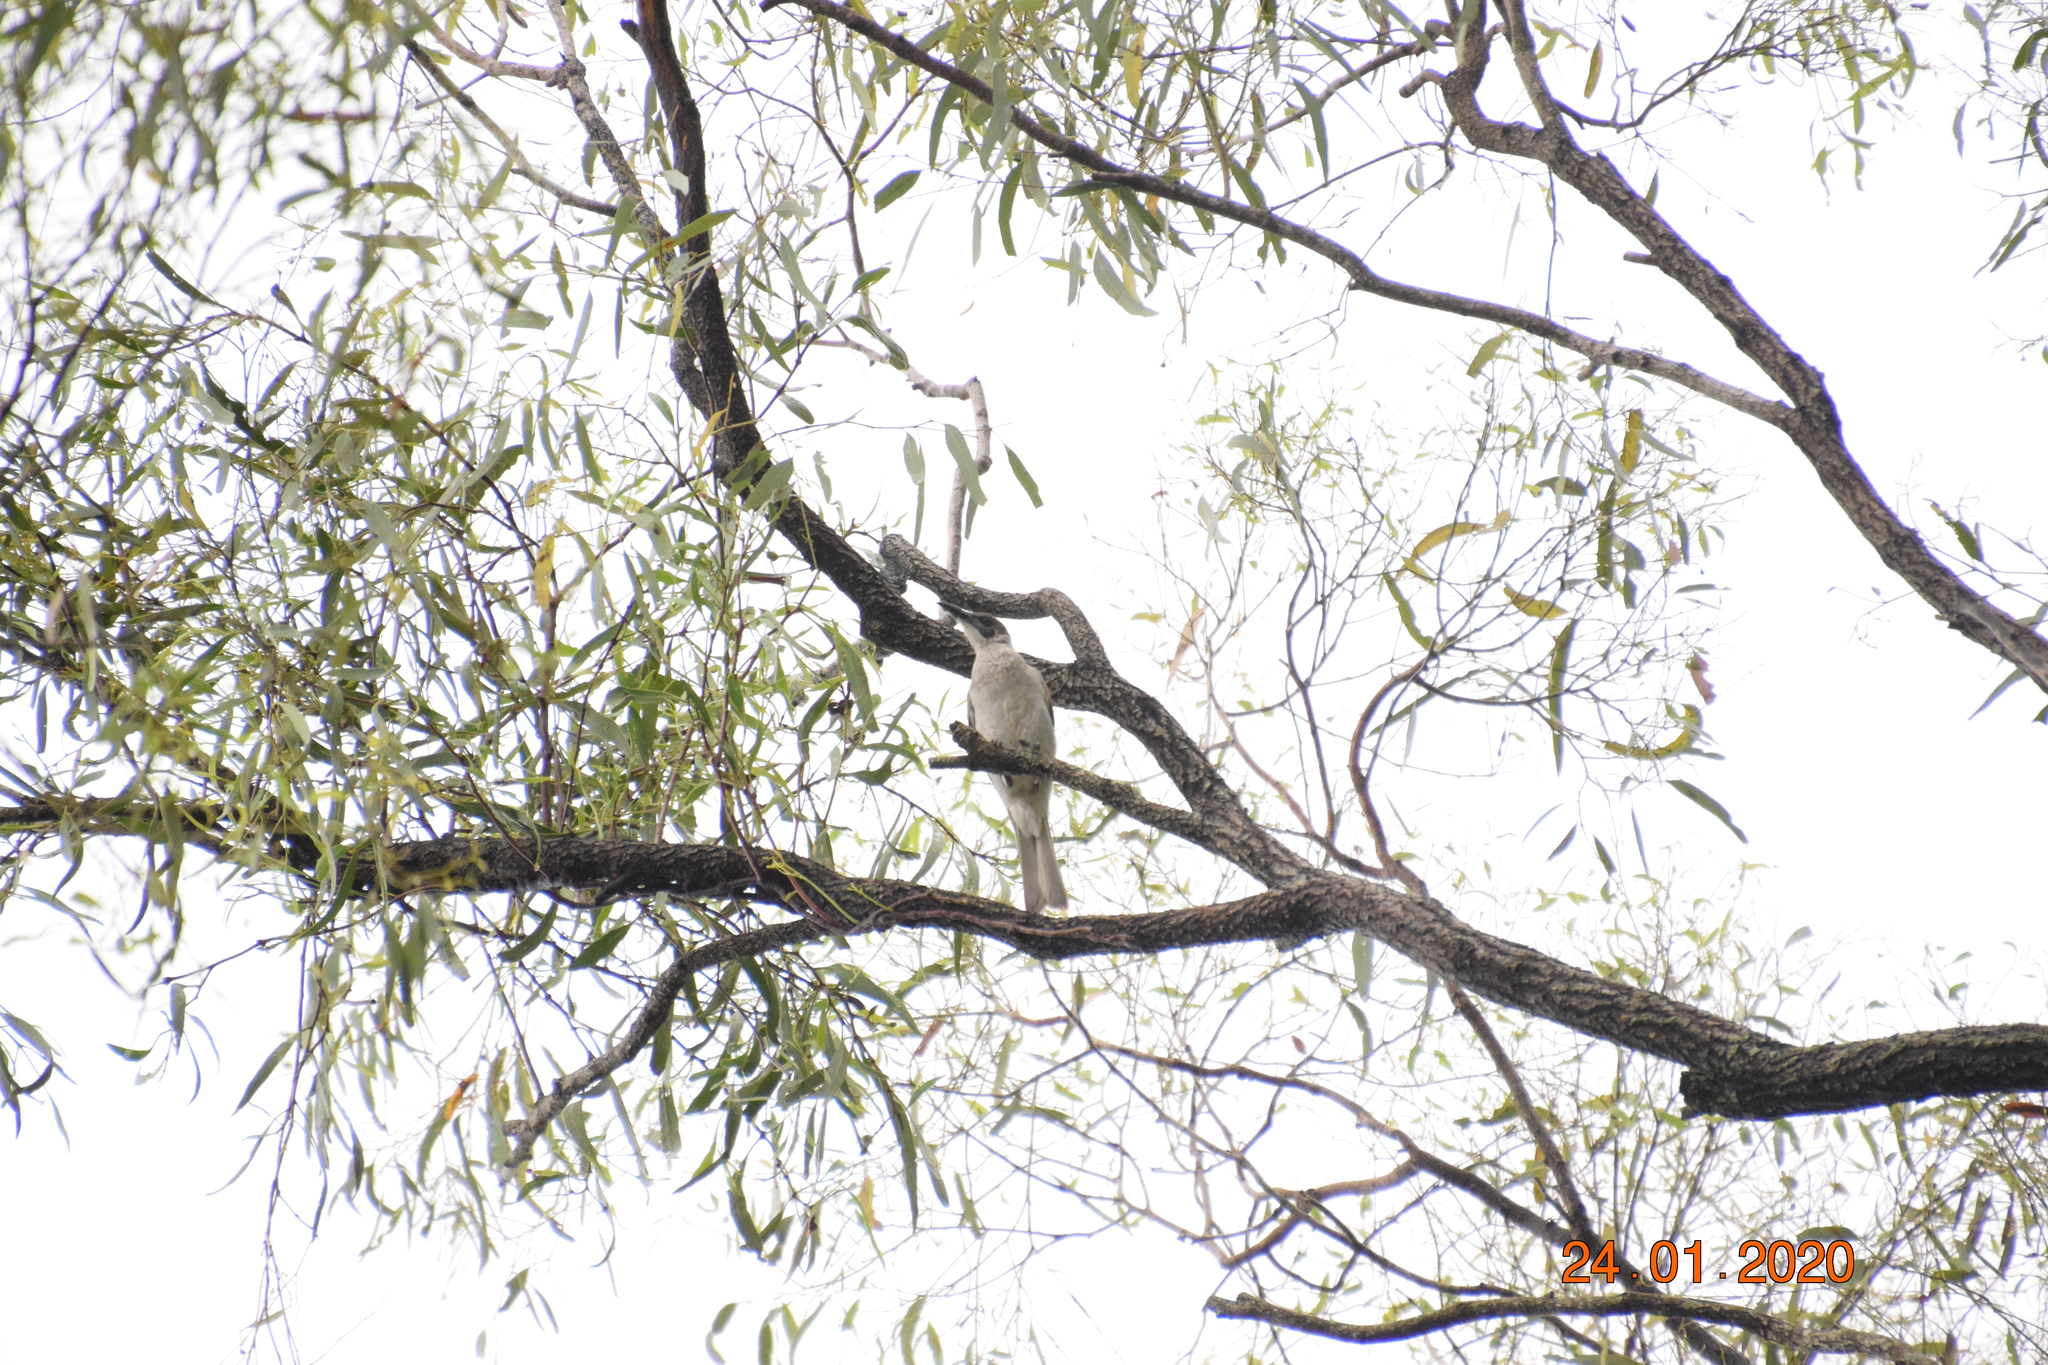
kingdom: Animalia
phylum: Chordata
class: Aves
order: Passeriformes
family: Meliphagidae
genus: Philemon
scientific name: Philemon citreogularis
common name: Little friarbird
